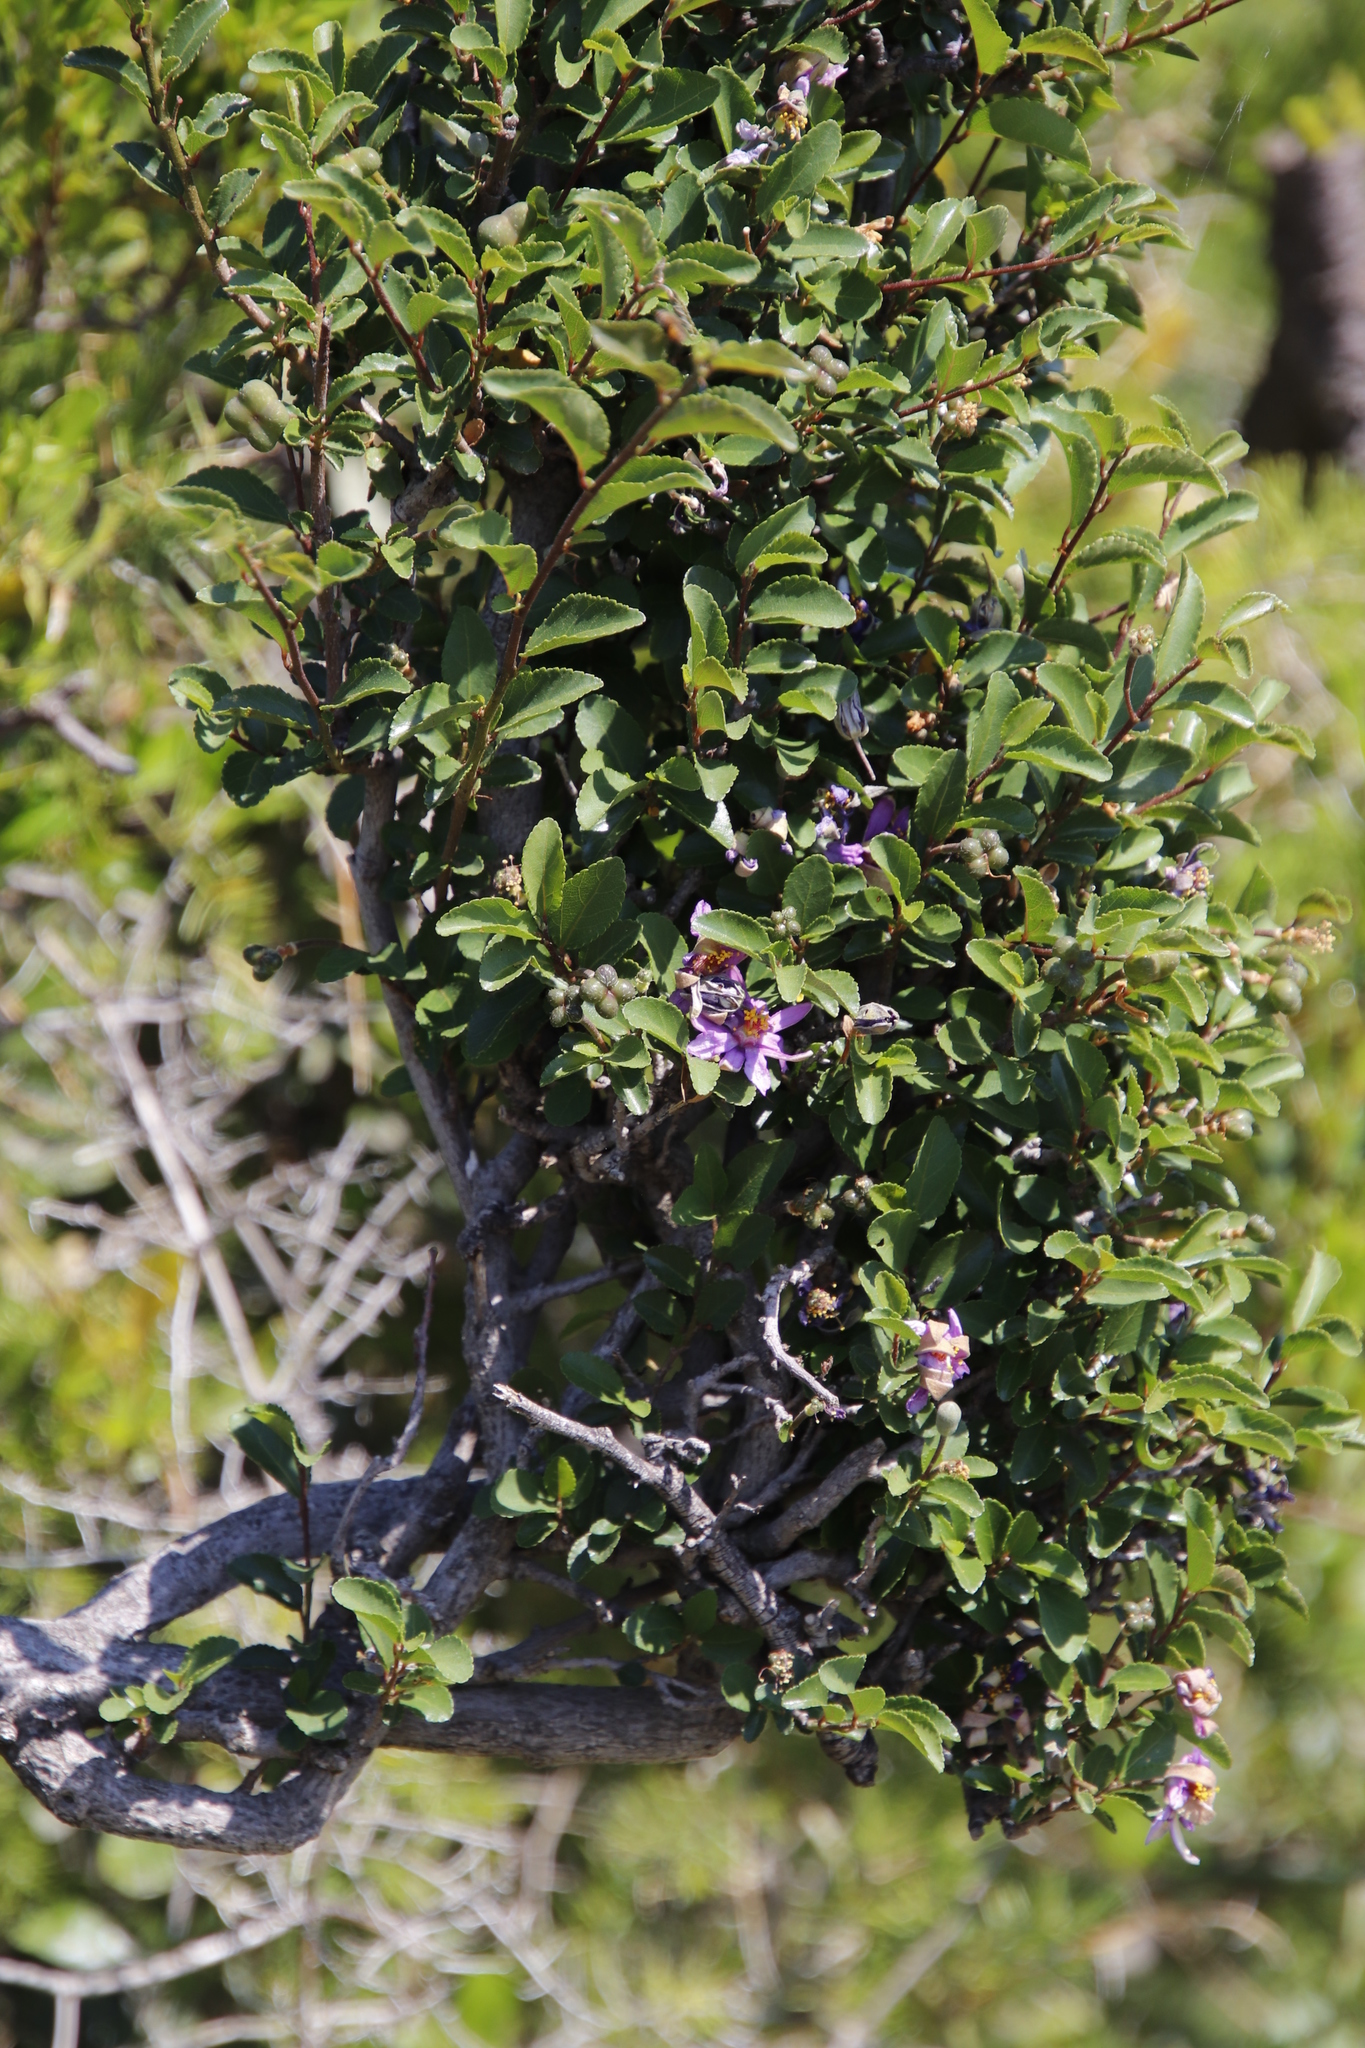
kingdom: Plantae
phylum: Tracheophyta
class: Magnoliopsida
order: Malvales
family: Malvaceae
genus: Grewia
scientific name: Grewia occidentalis
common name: Crossberry
